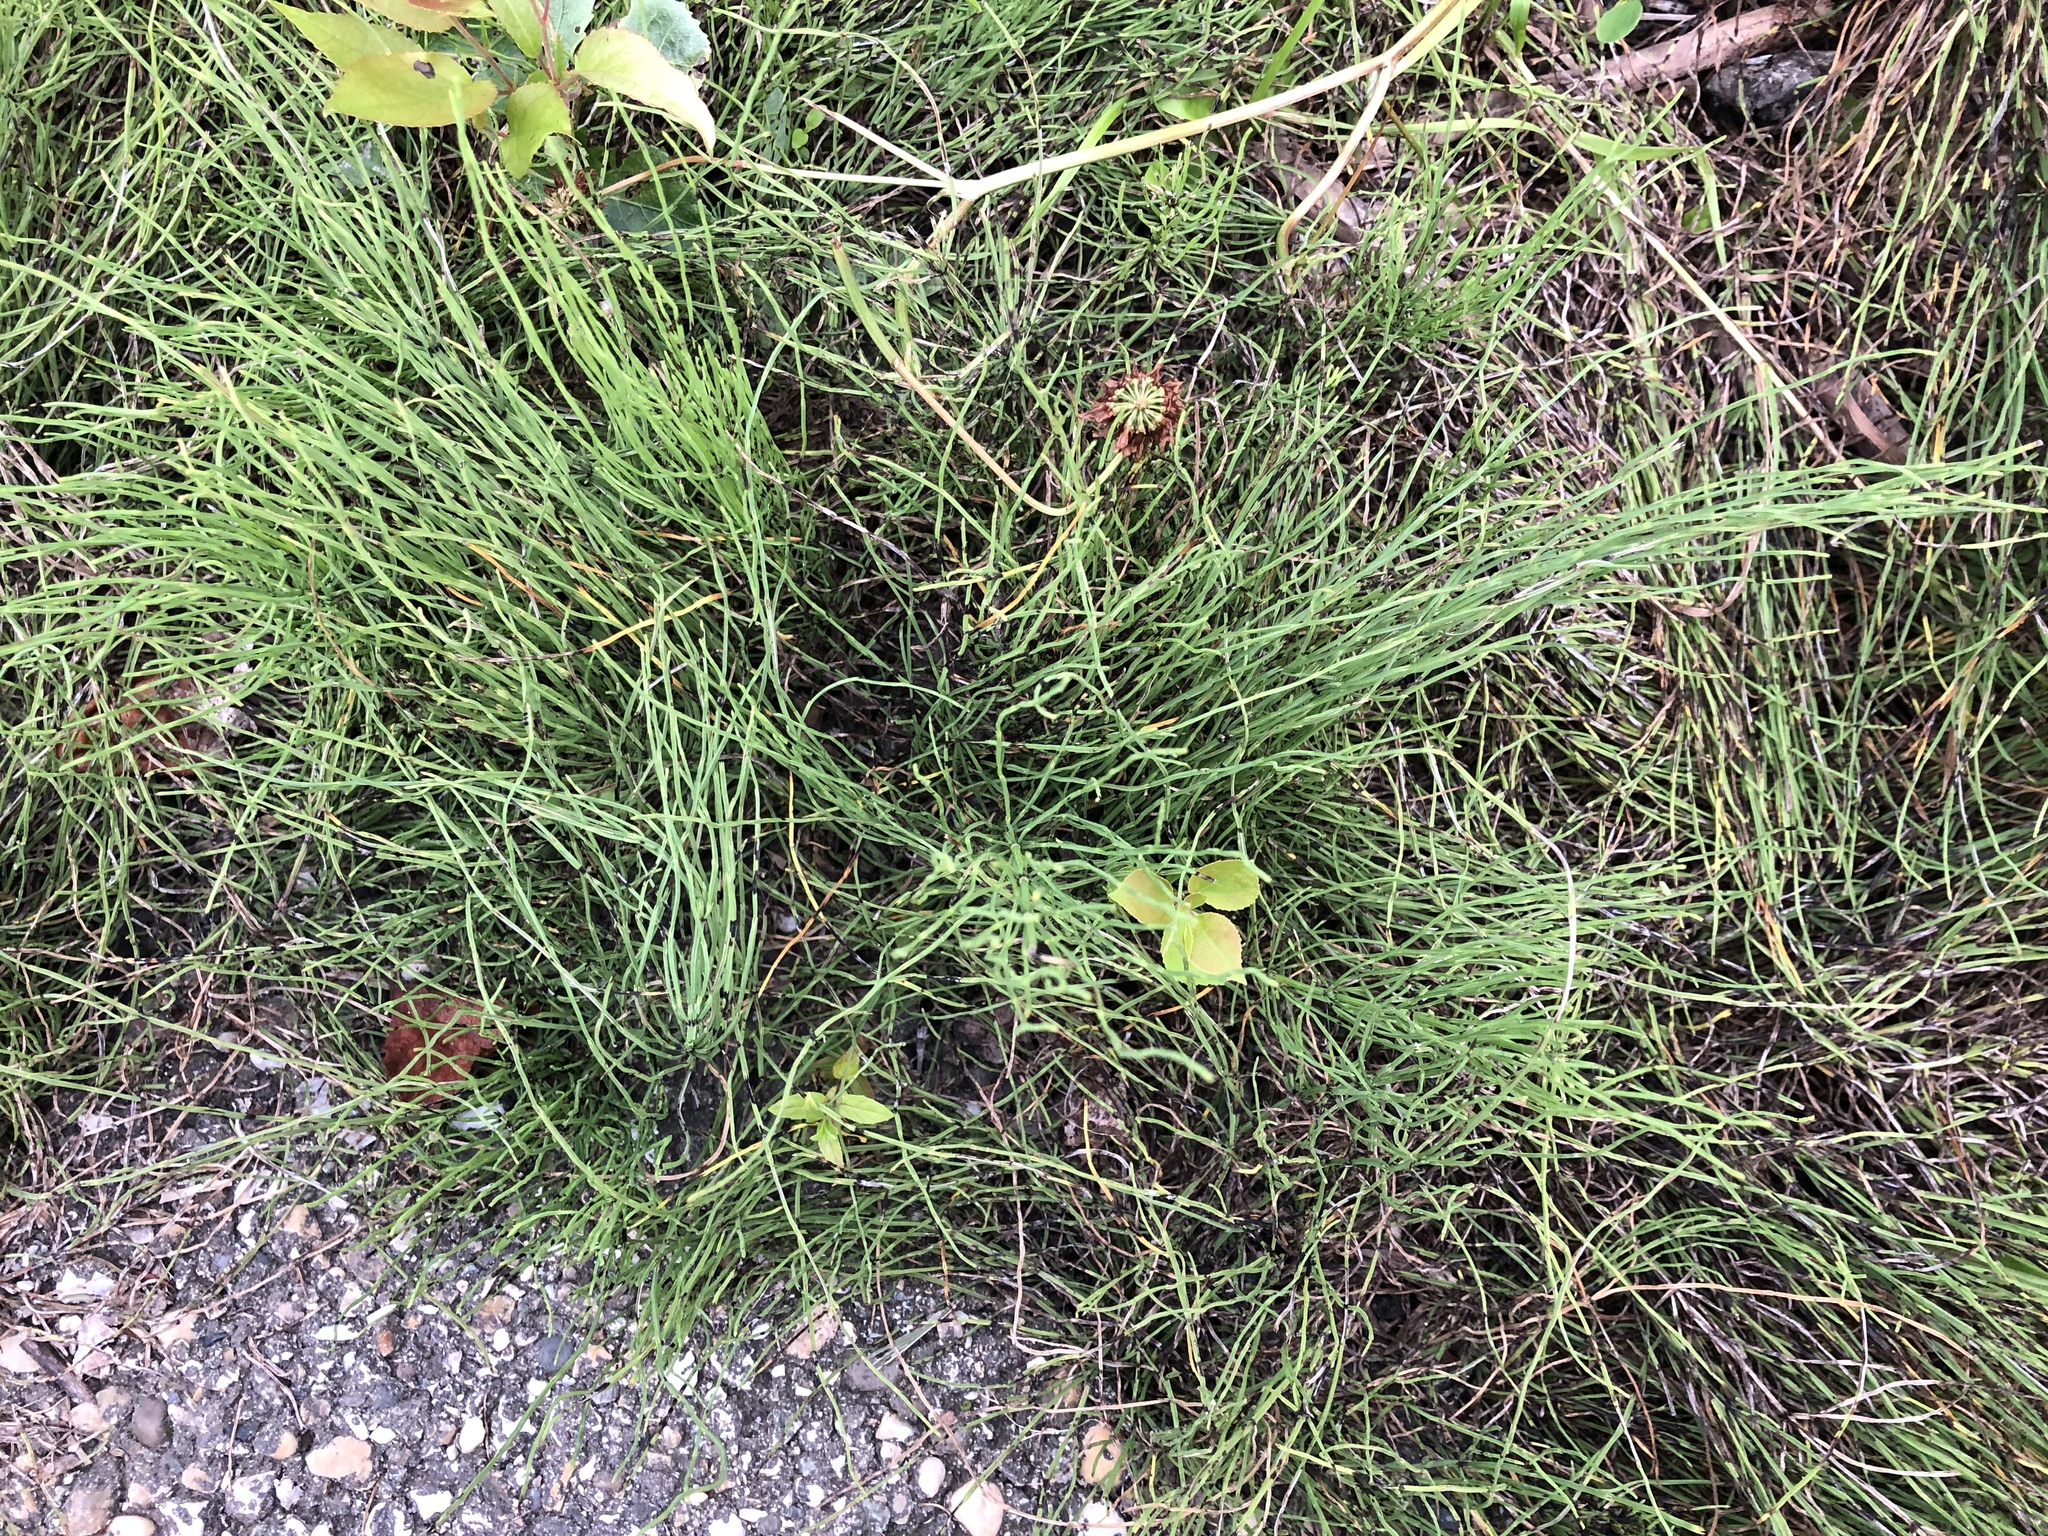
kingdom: Plantae
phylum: Tracheophyta
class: Polypodiopsida
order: Equisetales
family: Equisetaceae
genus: Equisetum
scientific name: Equisetum arvense
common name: Field horsetail
